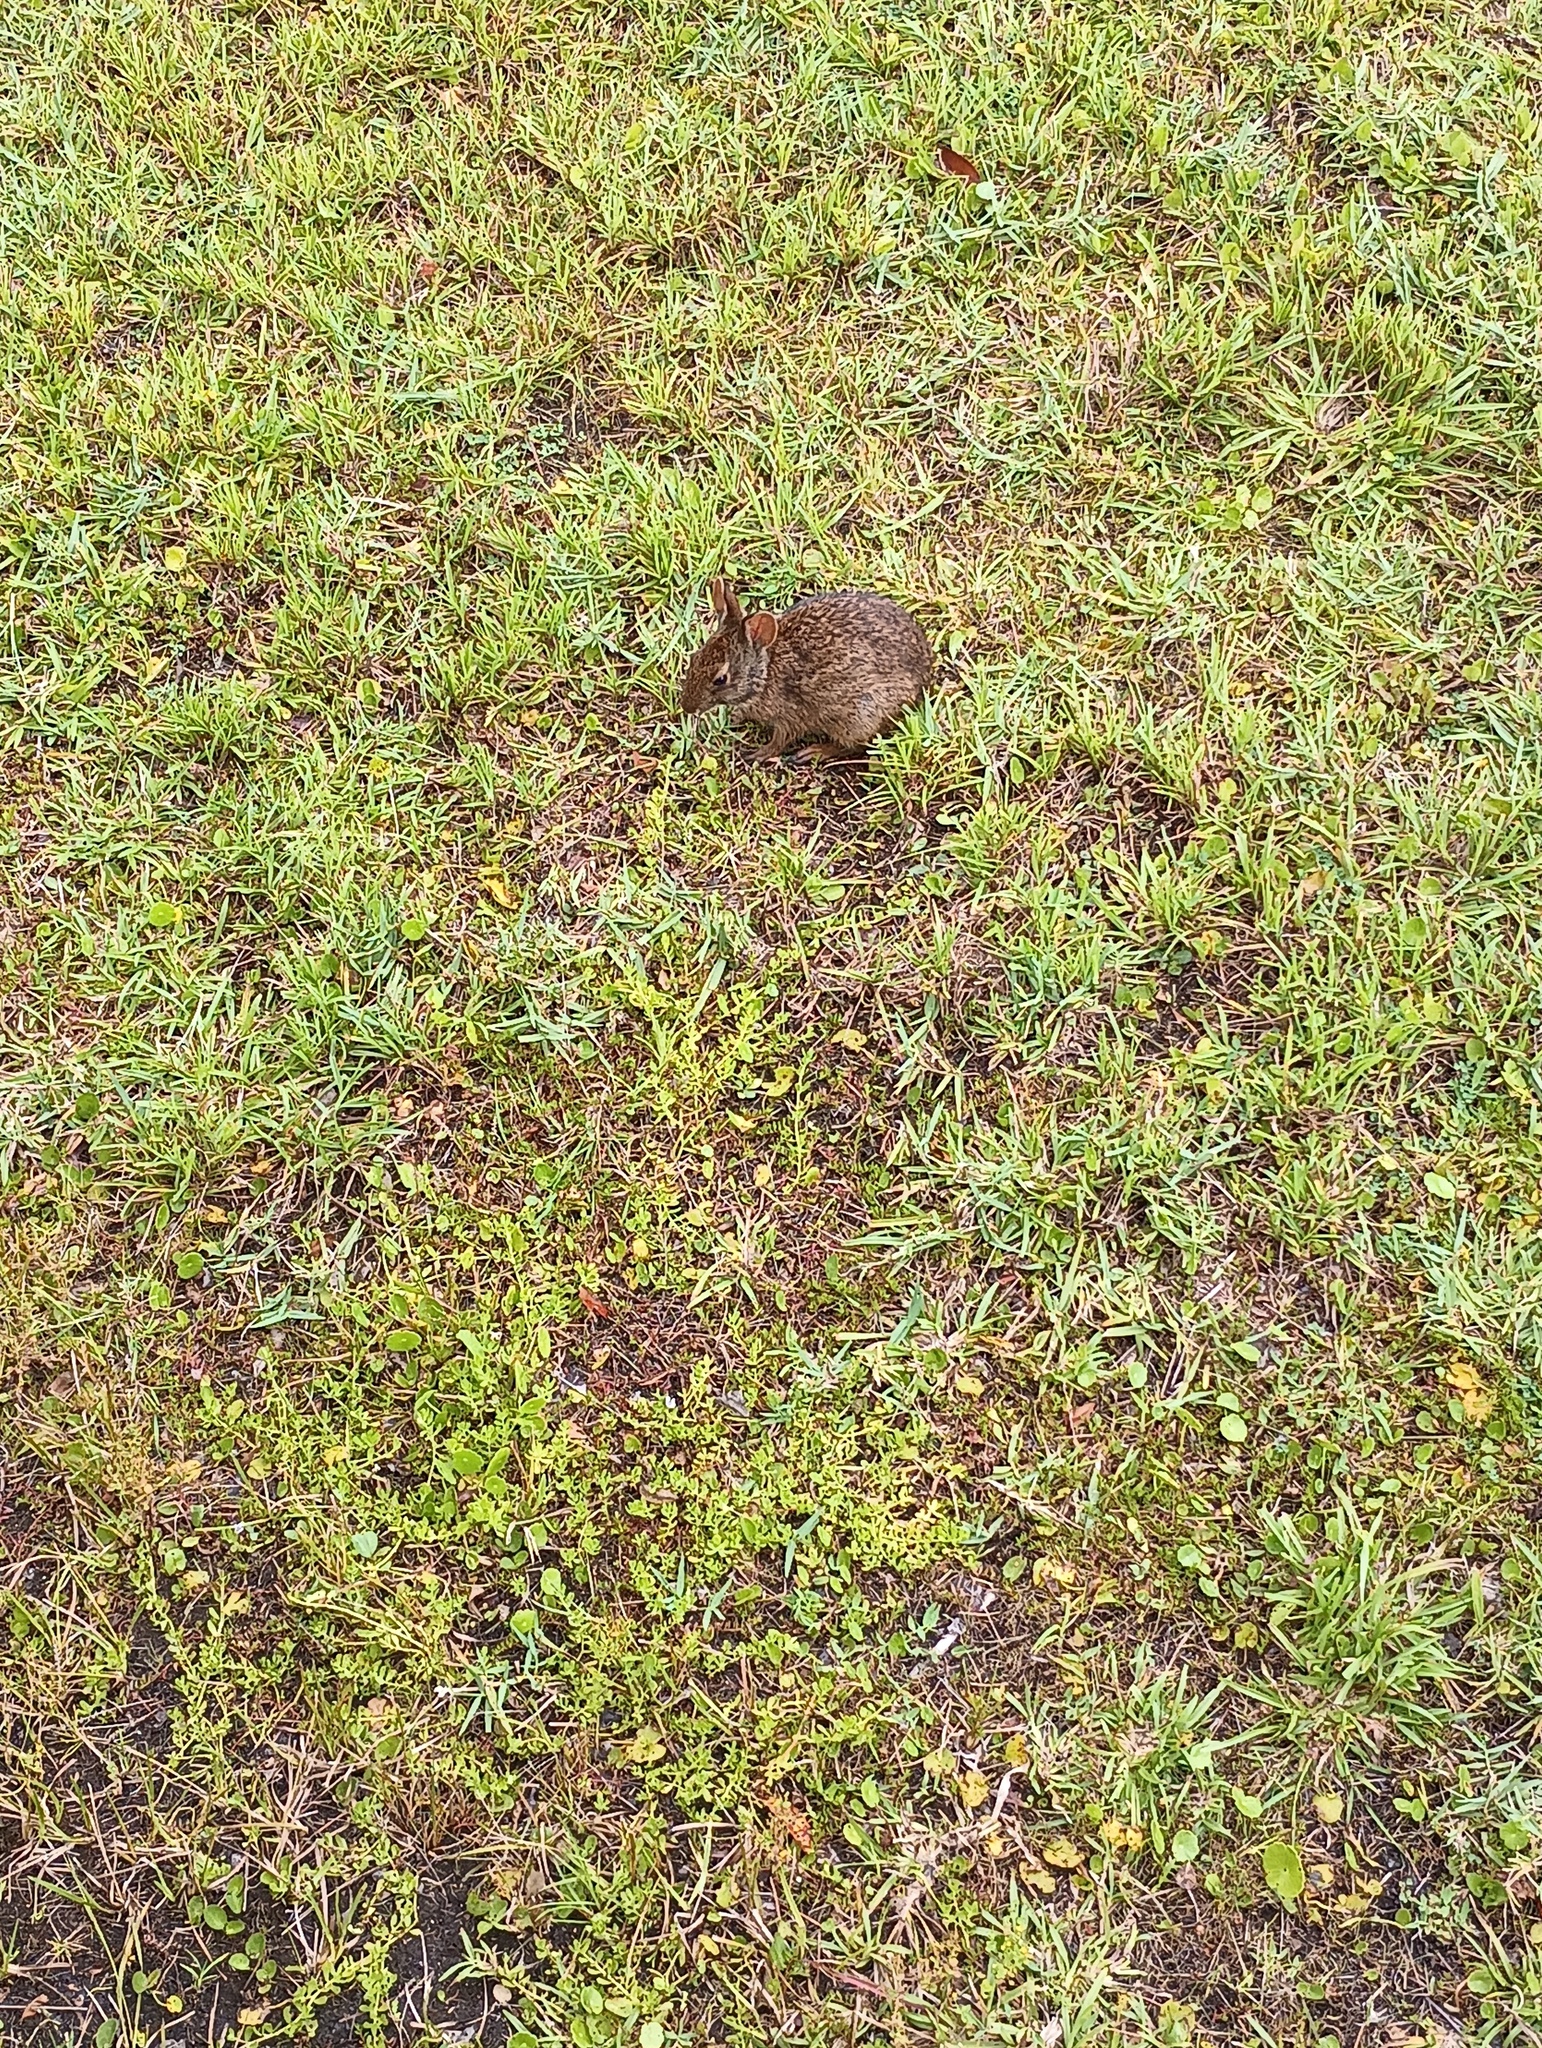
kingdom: Animalia
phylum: Chordata
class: Mammalia
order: Lagomorpha
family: Leporidae
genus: Sylvilagus
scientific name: Sylvilagus palustris
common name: Marsh rabbit
